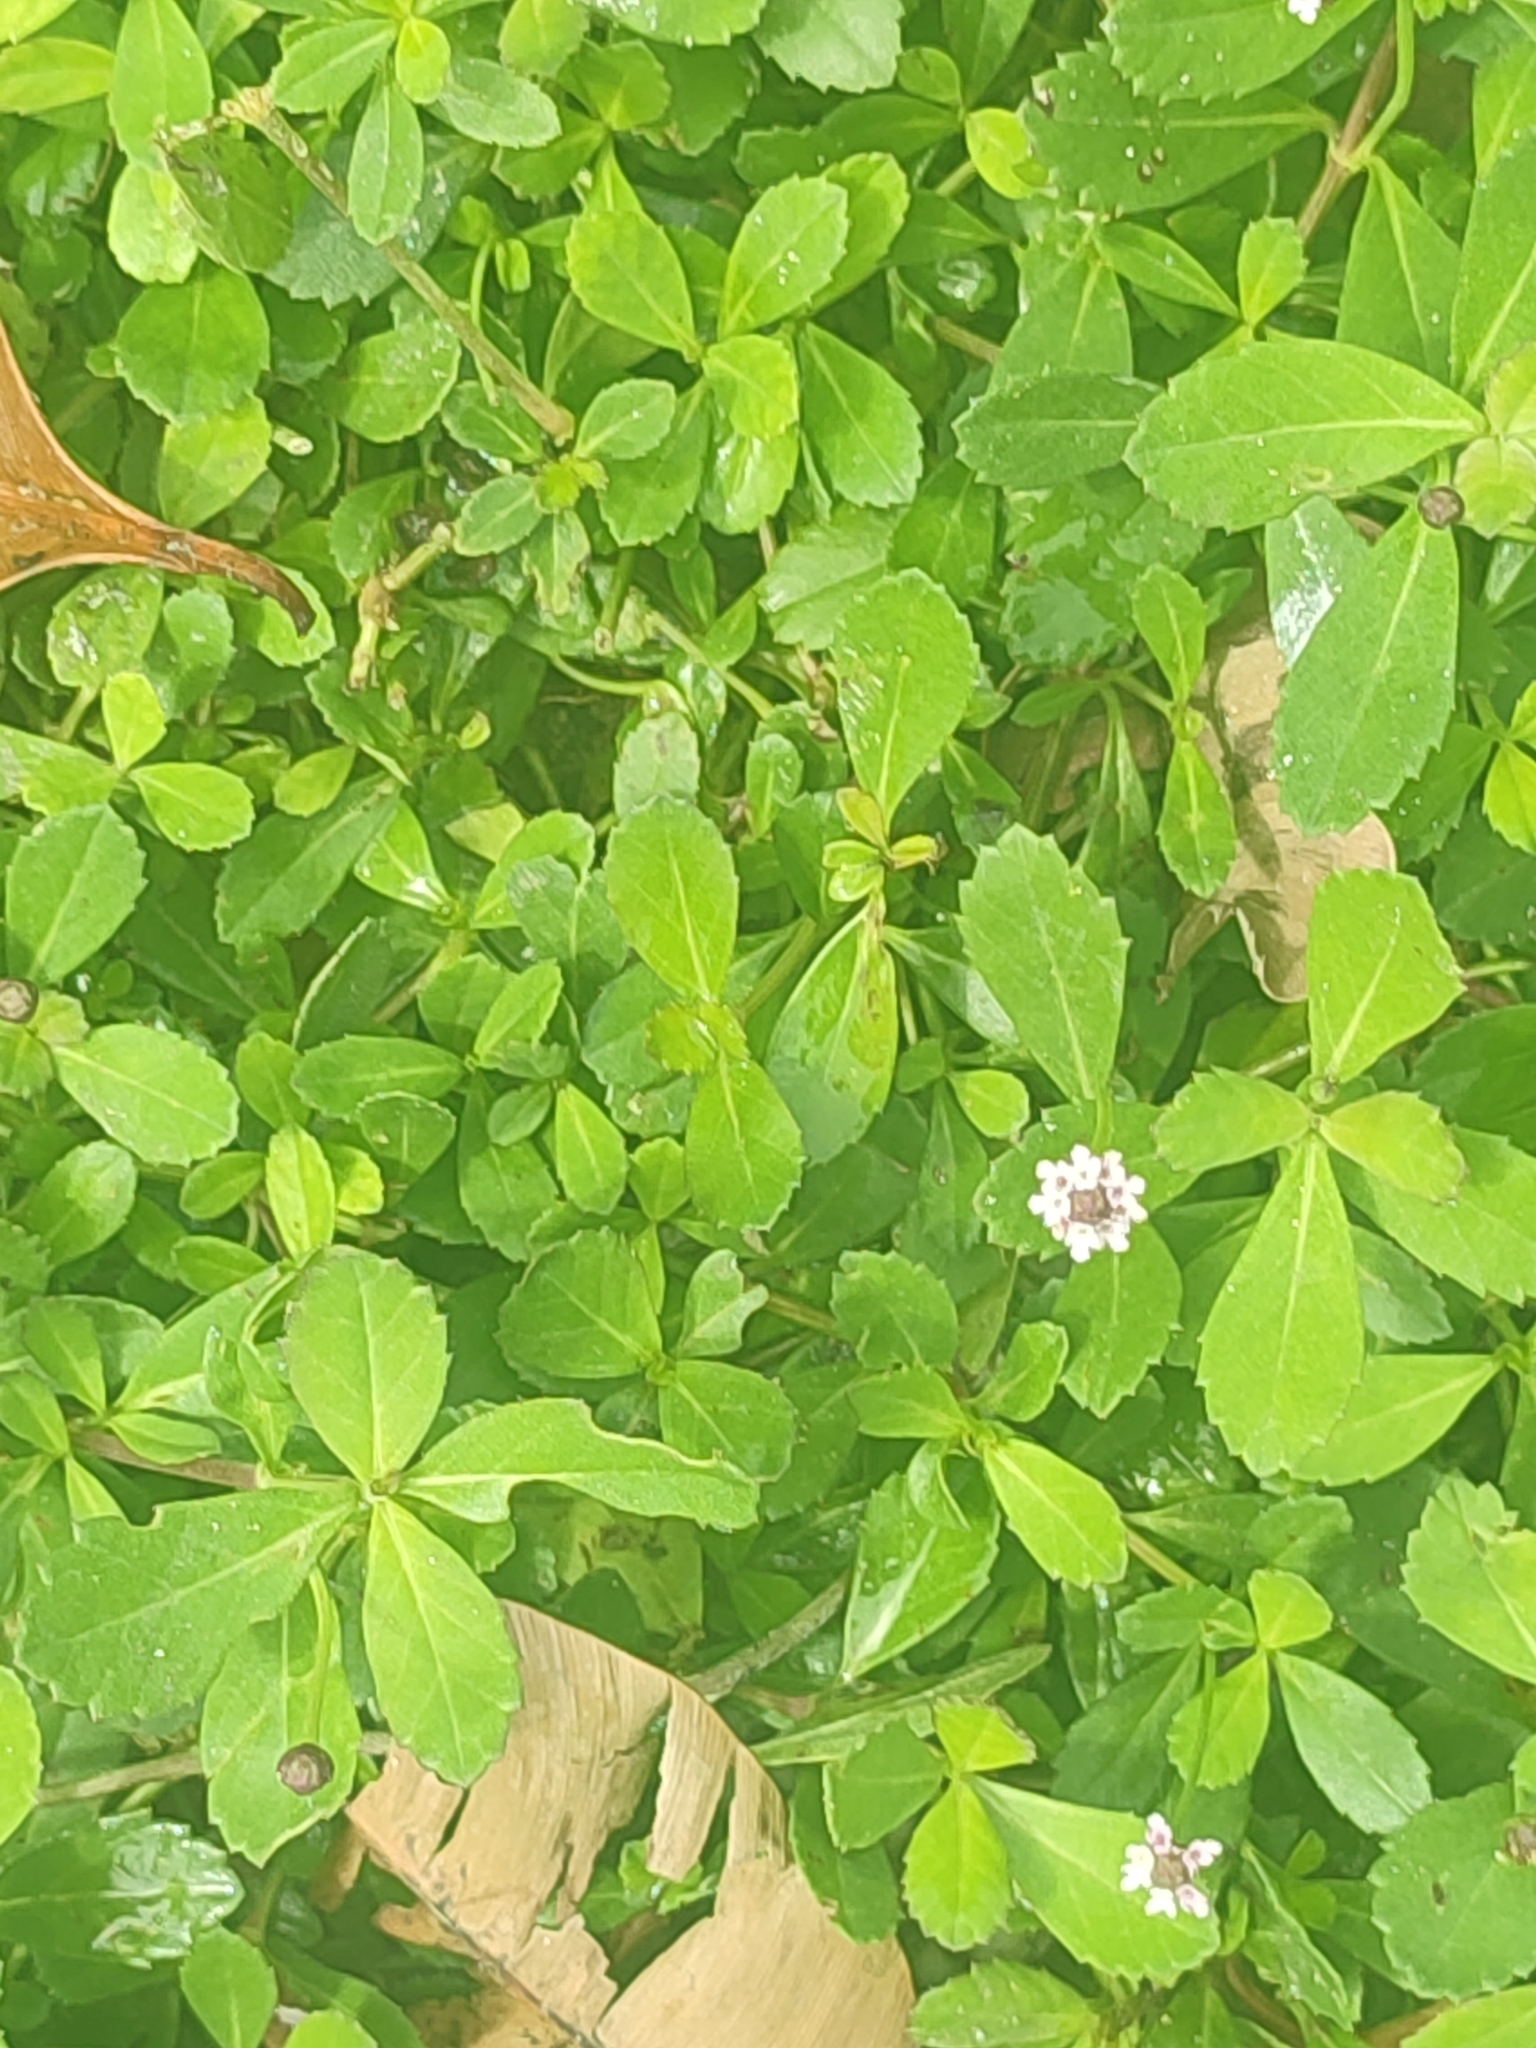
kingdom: Plantae
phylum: Tracheophyta
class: Magnoliopsida
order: Lamiales
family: Verbenaceae
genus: Phyla
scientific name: Phyla nodiflora
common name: Frogfruit
